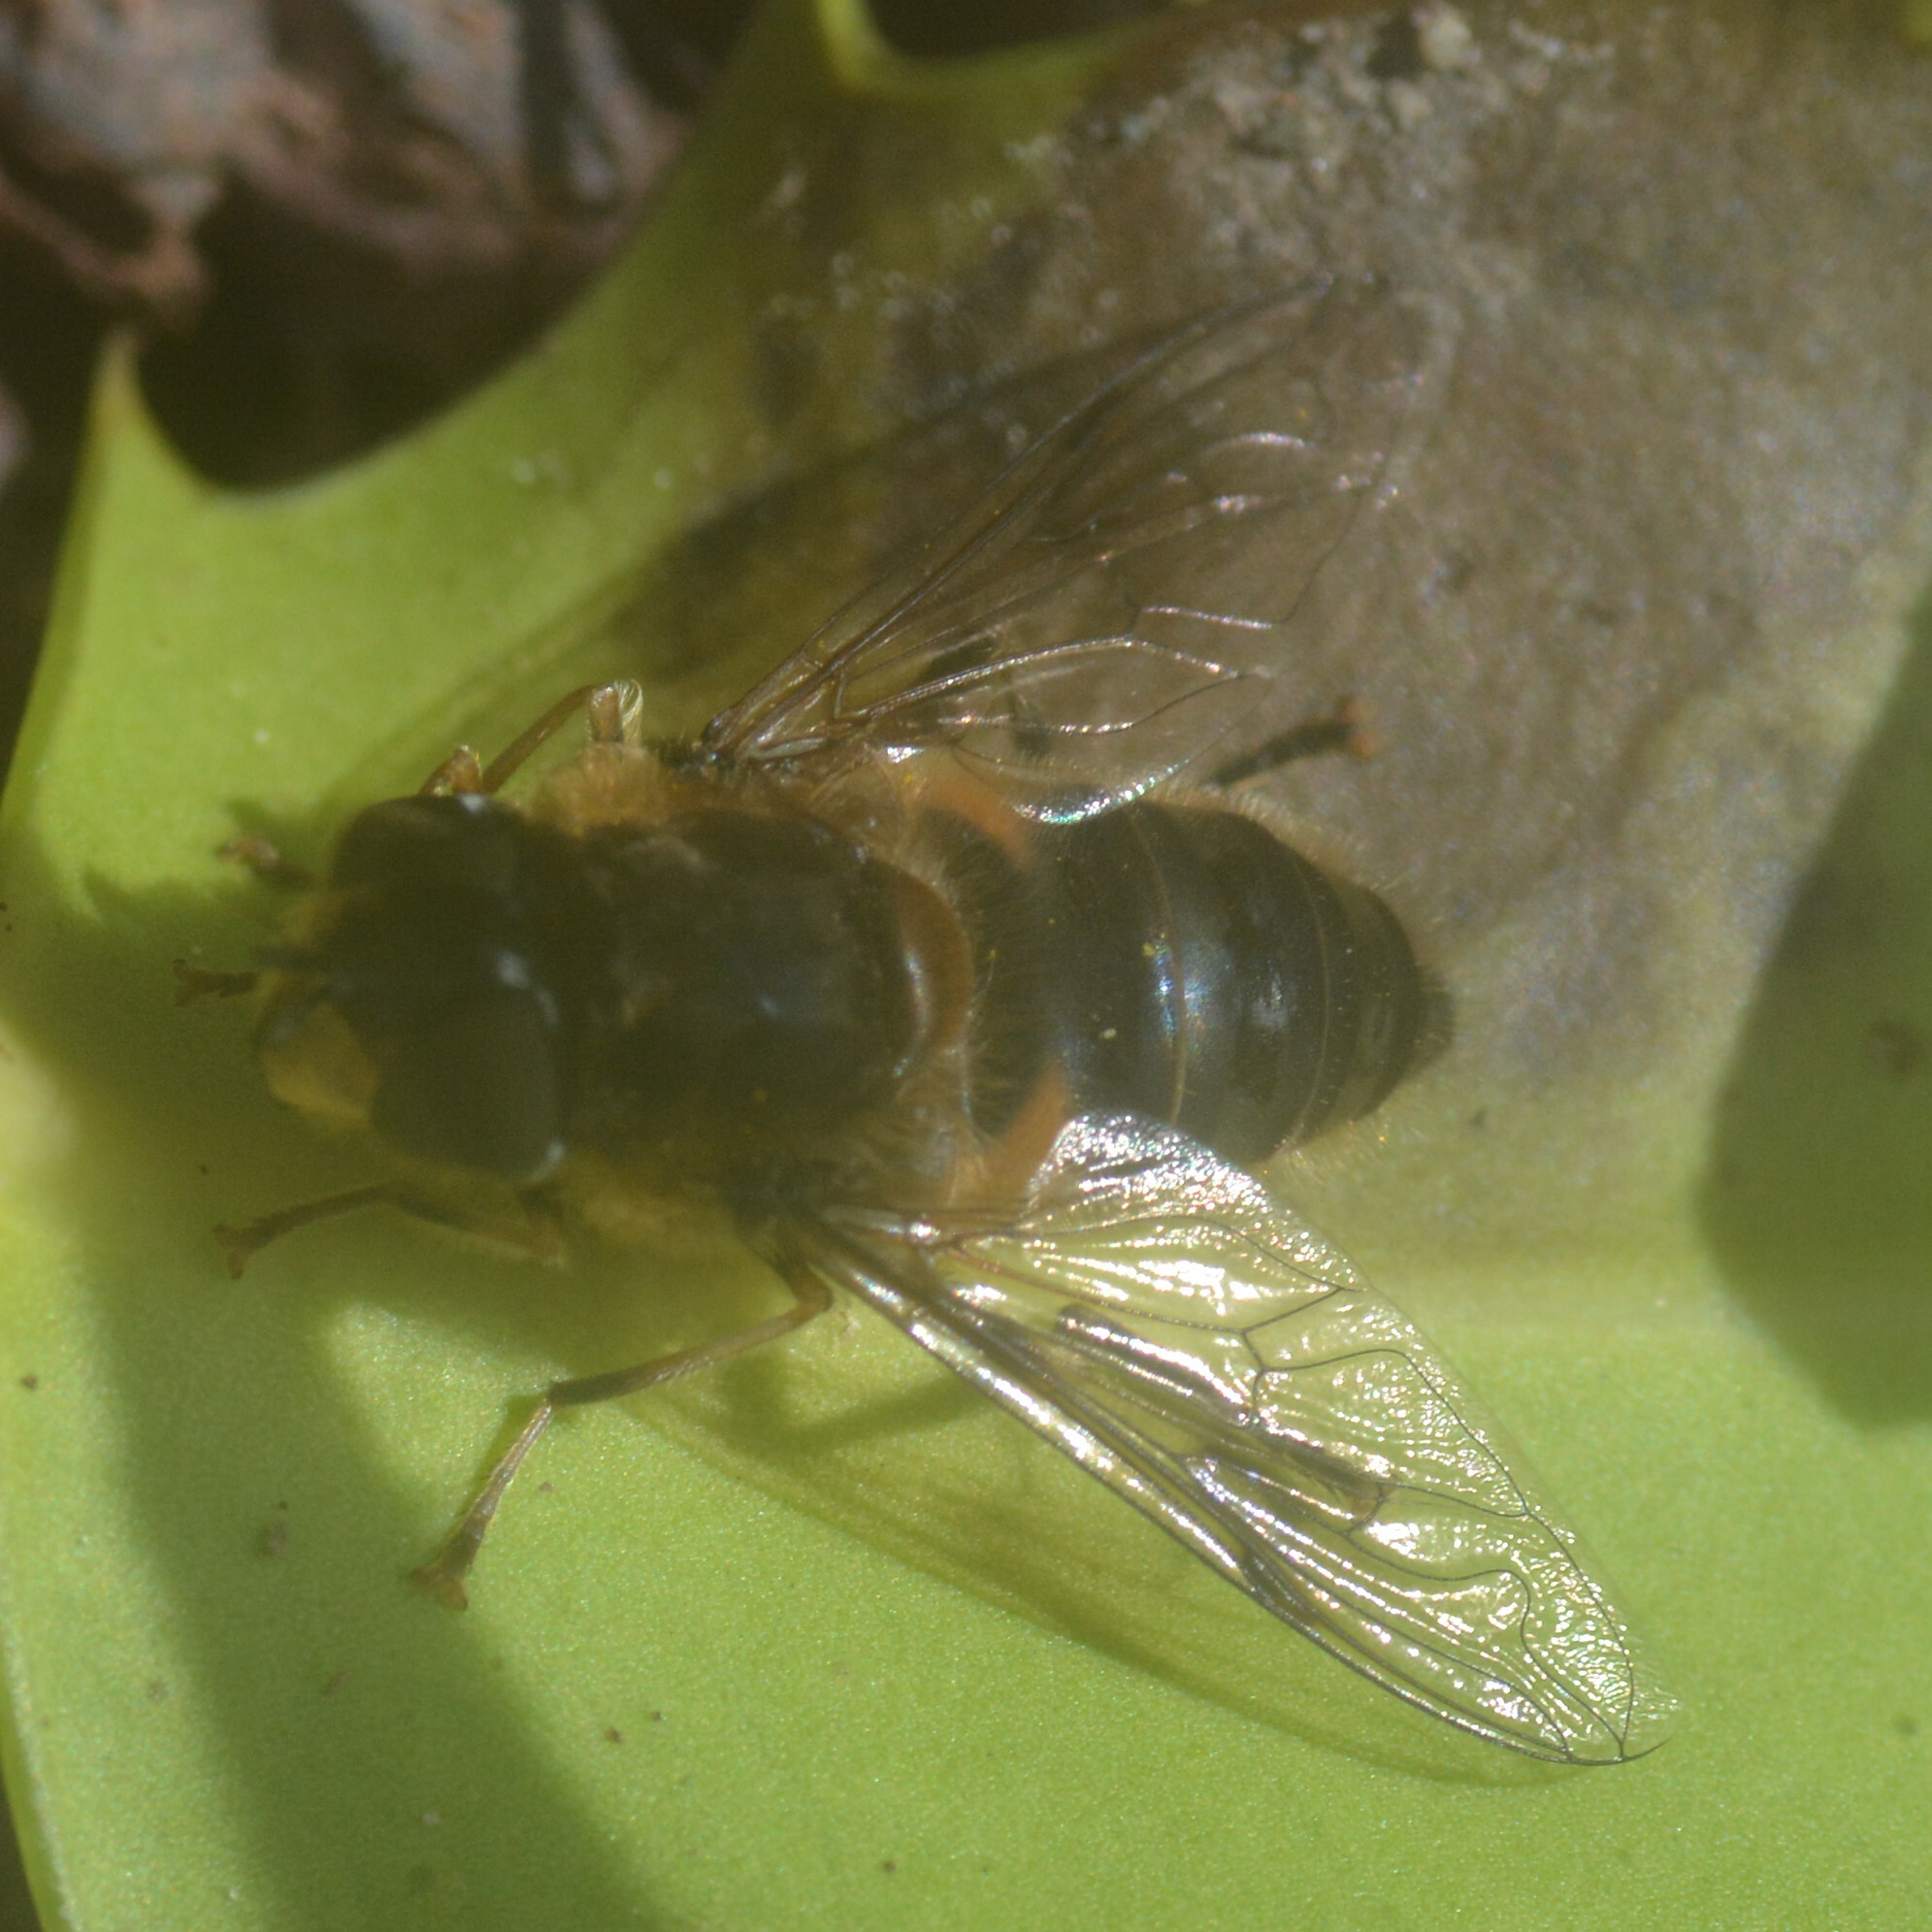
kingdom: Animalia
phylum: Arthropoda
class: Insecta
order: Diptera
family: Syrphidae
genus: Eristalis
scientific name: Eristalis pertinax
